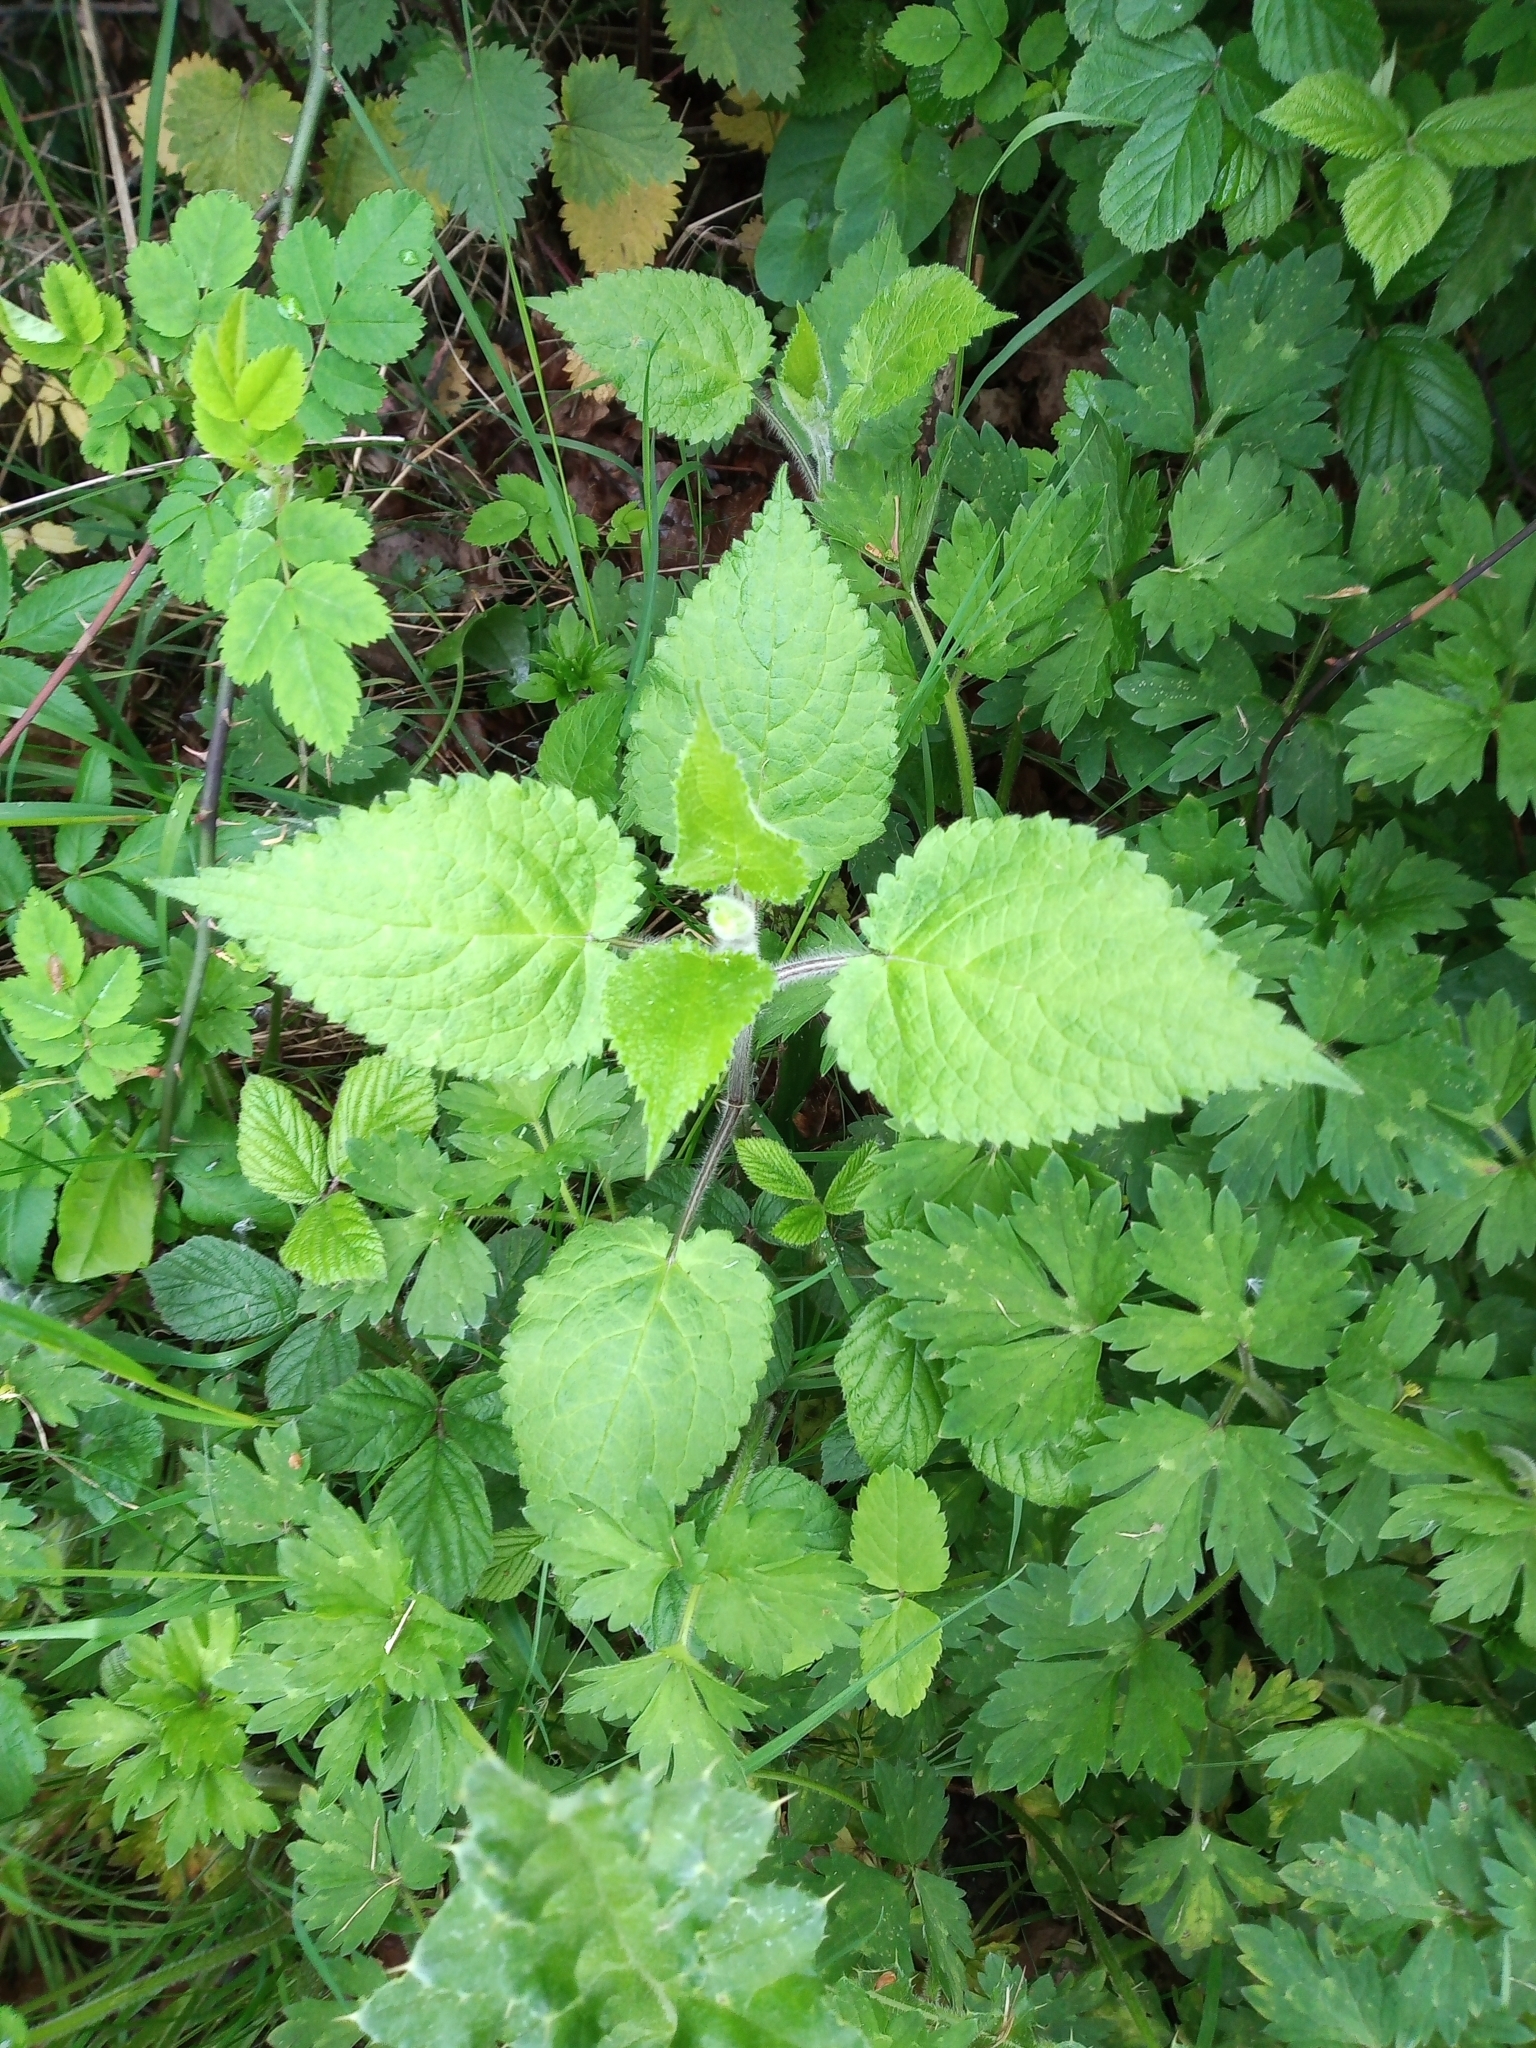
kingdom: Plantae
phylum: Tracheophyta
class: Magnoliopsida
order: Lamiales
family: Lamiaceae
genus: Stachys
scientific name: Stachys sylvatica
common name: Hedge woundwort
